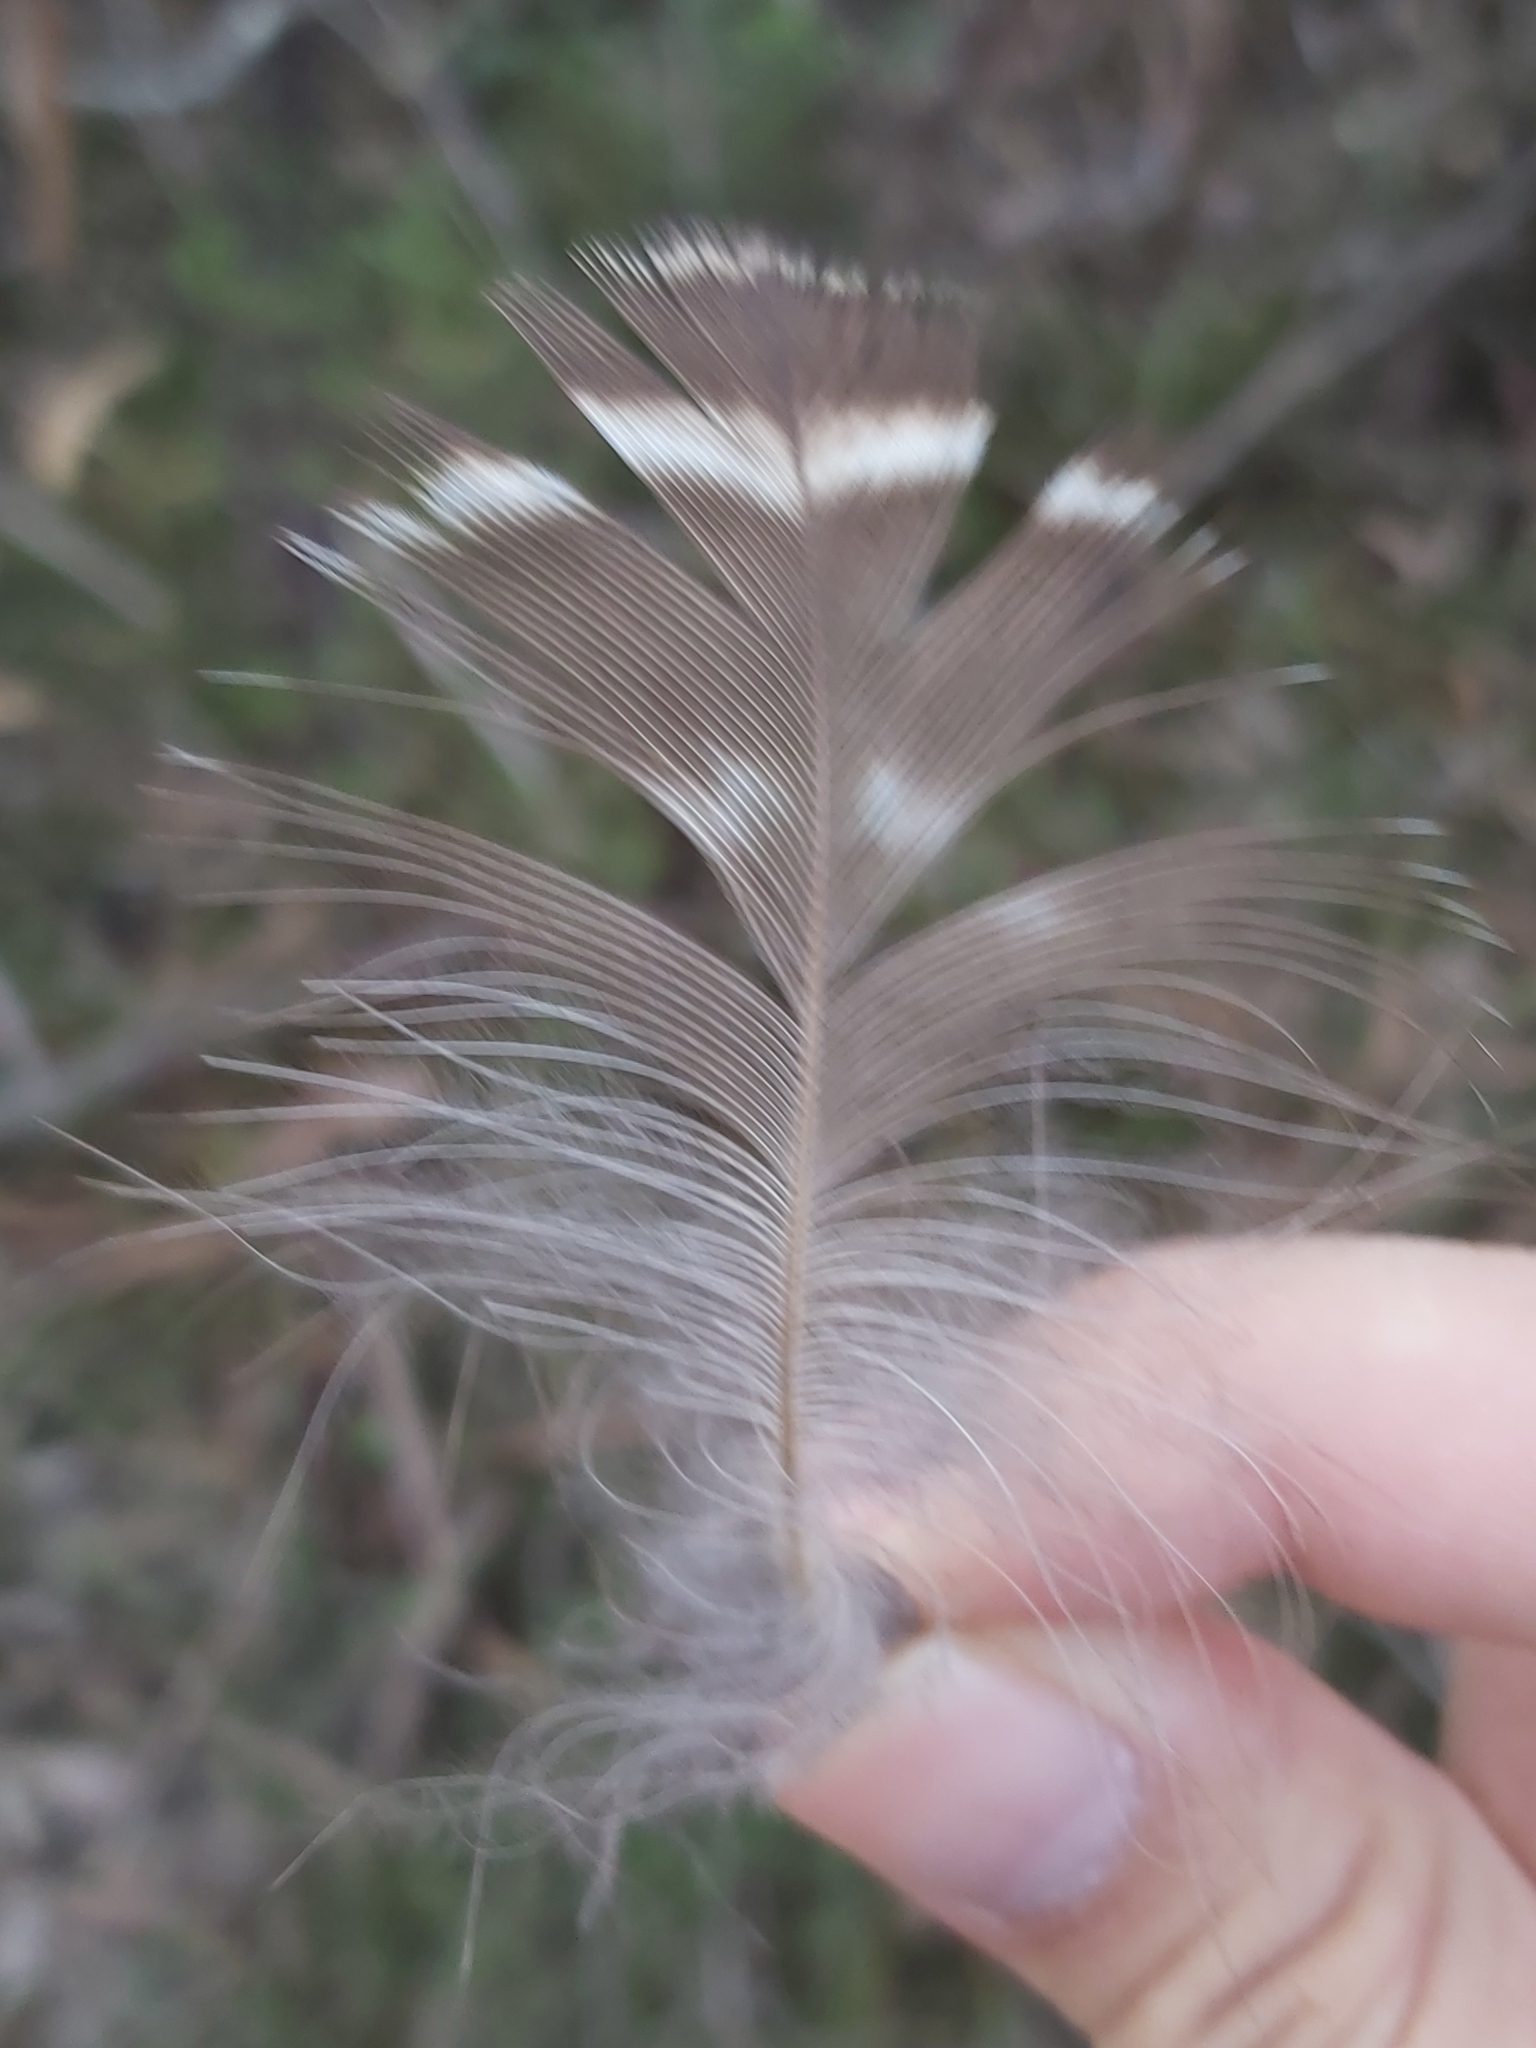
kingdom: Animalia
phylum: Chordata
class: Aves
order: Strigiformes
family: Strigidae
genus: Ninox
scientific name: Ninox strenua
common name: Powerful owl
